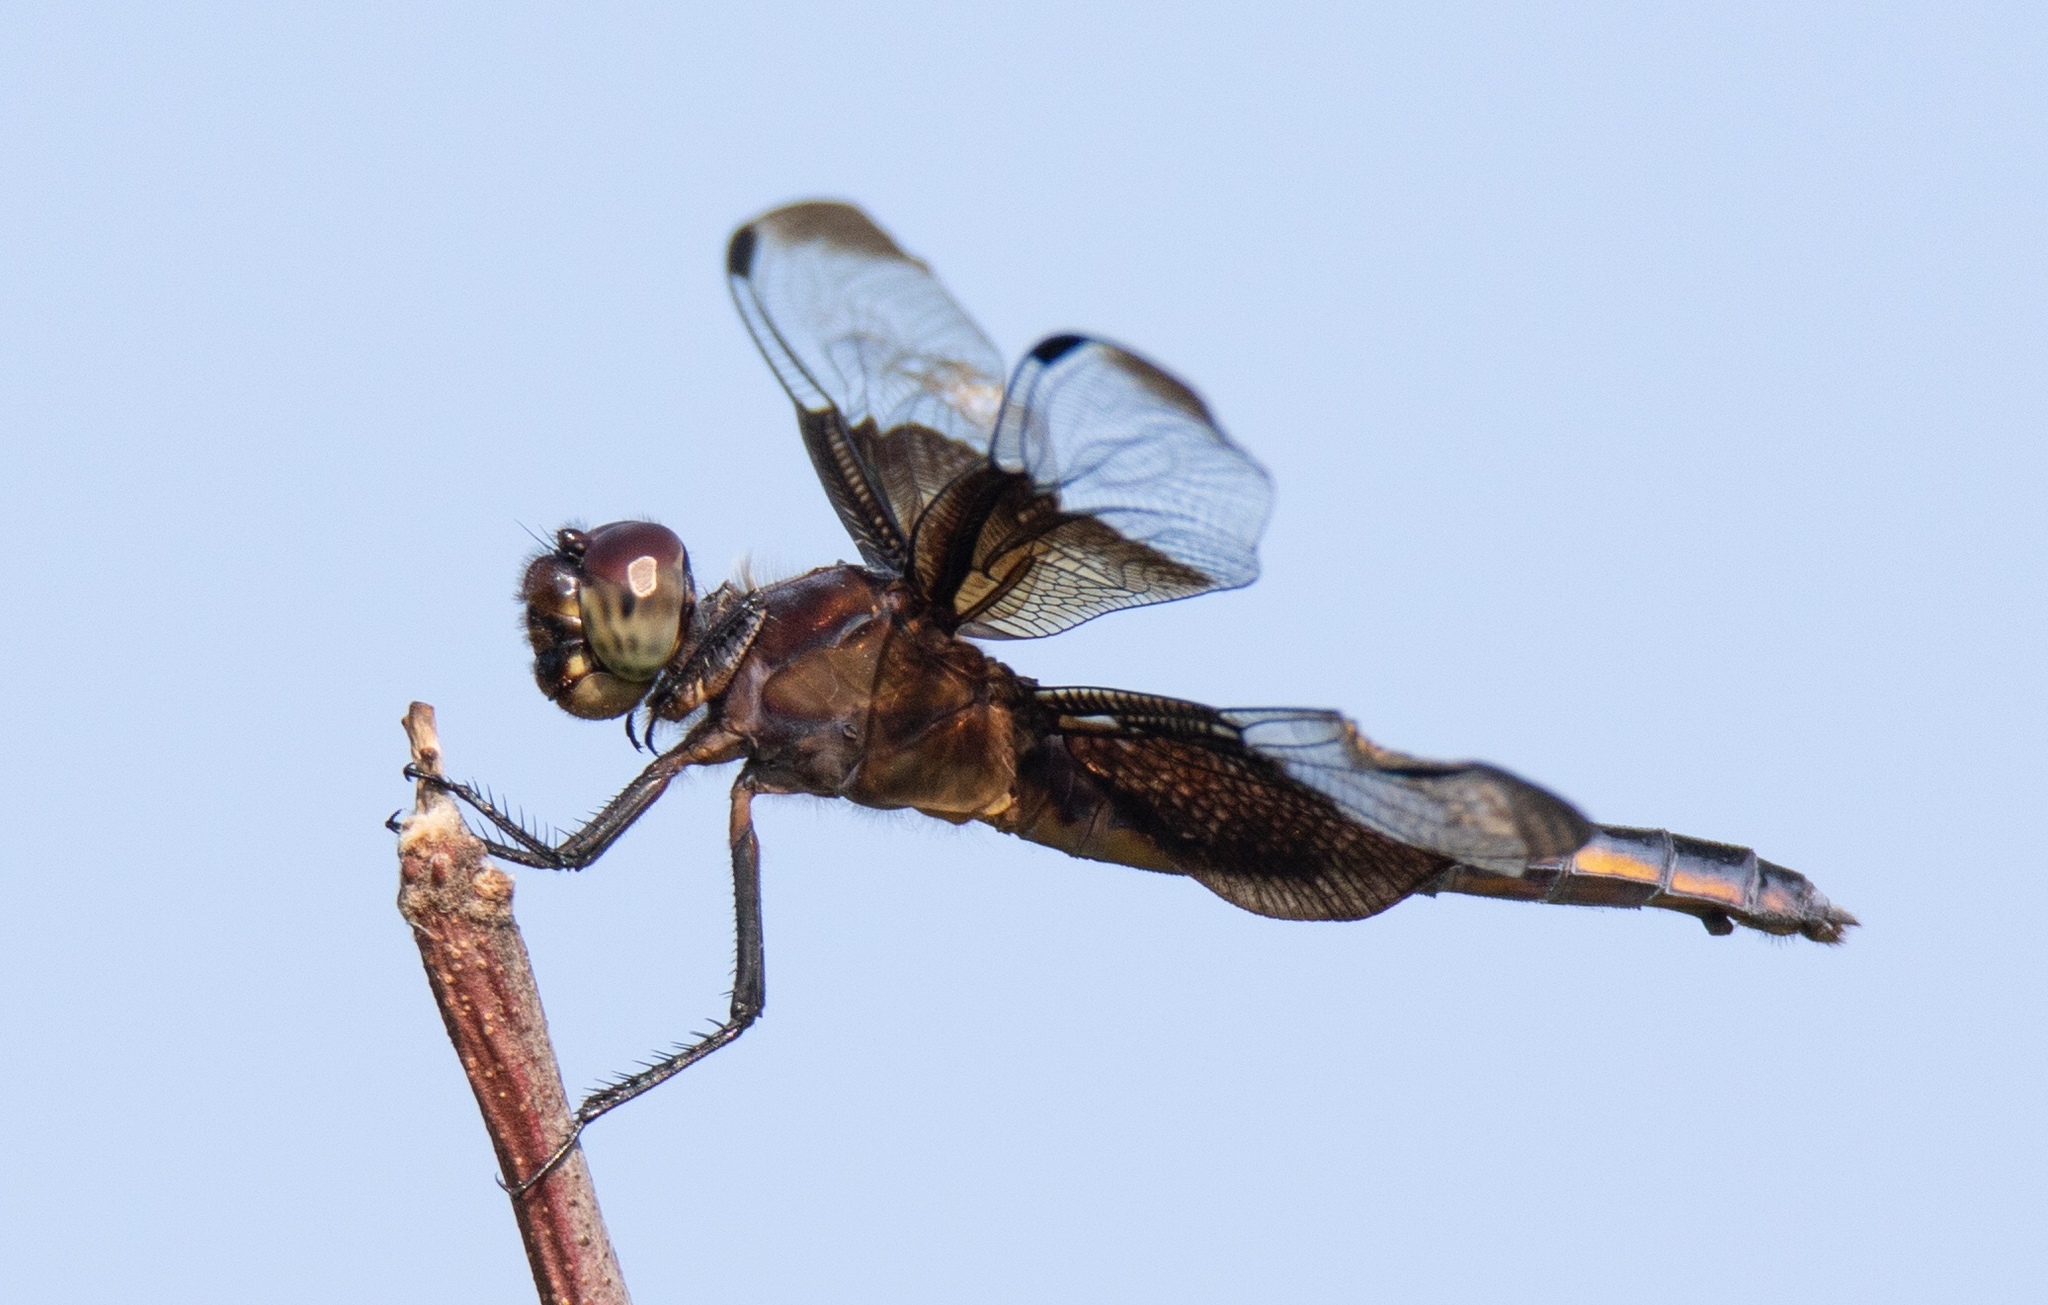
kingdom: Animalia
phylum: Arthropoda
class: Insecta
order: Odonata
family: Libellulidae
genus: Libellula
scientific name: Libellula luctuosa
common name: Widow skimmer
